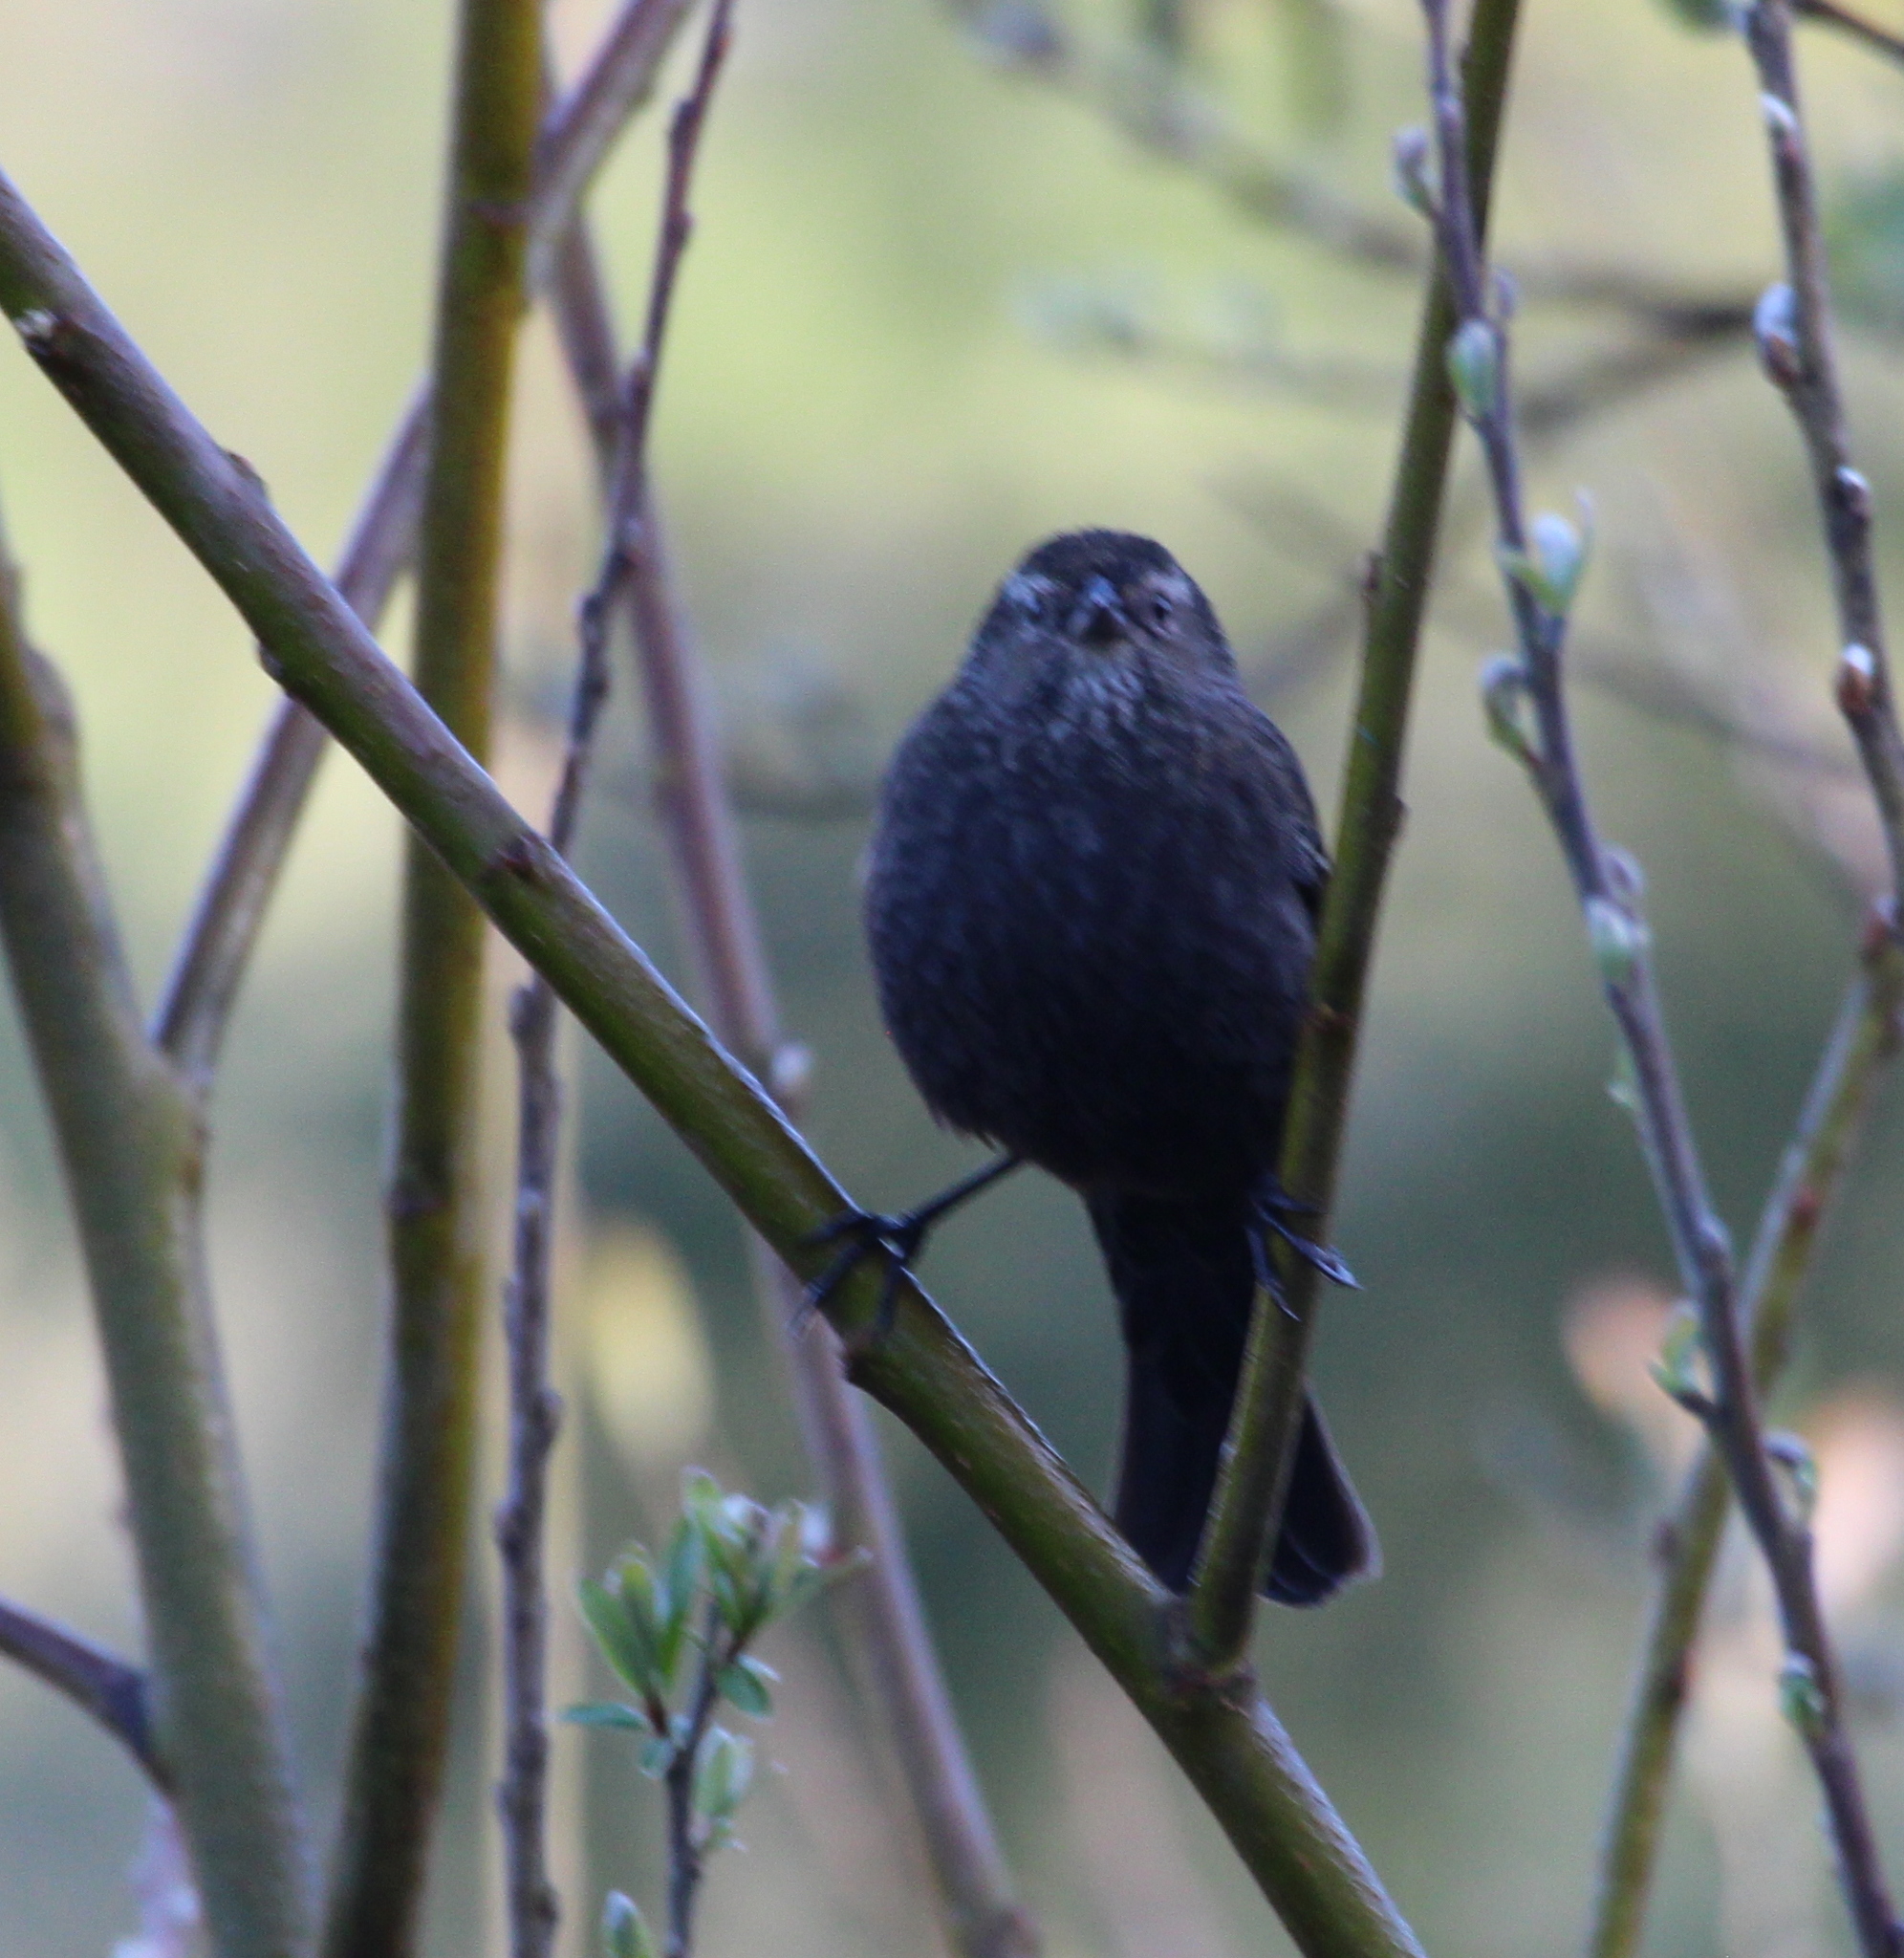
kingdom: Animalia
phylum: Chordata
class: Aves
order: Passeriformes
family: Icteridae
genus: Agelaius
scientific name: Agelaius phoeniceus
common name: Red-winged blackbird
